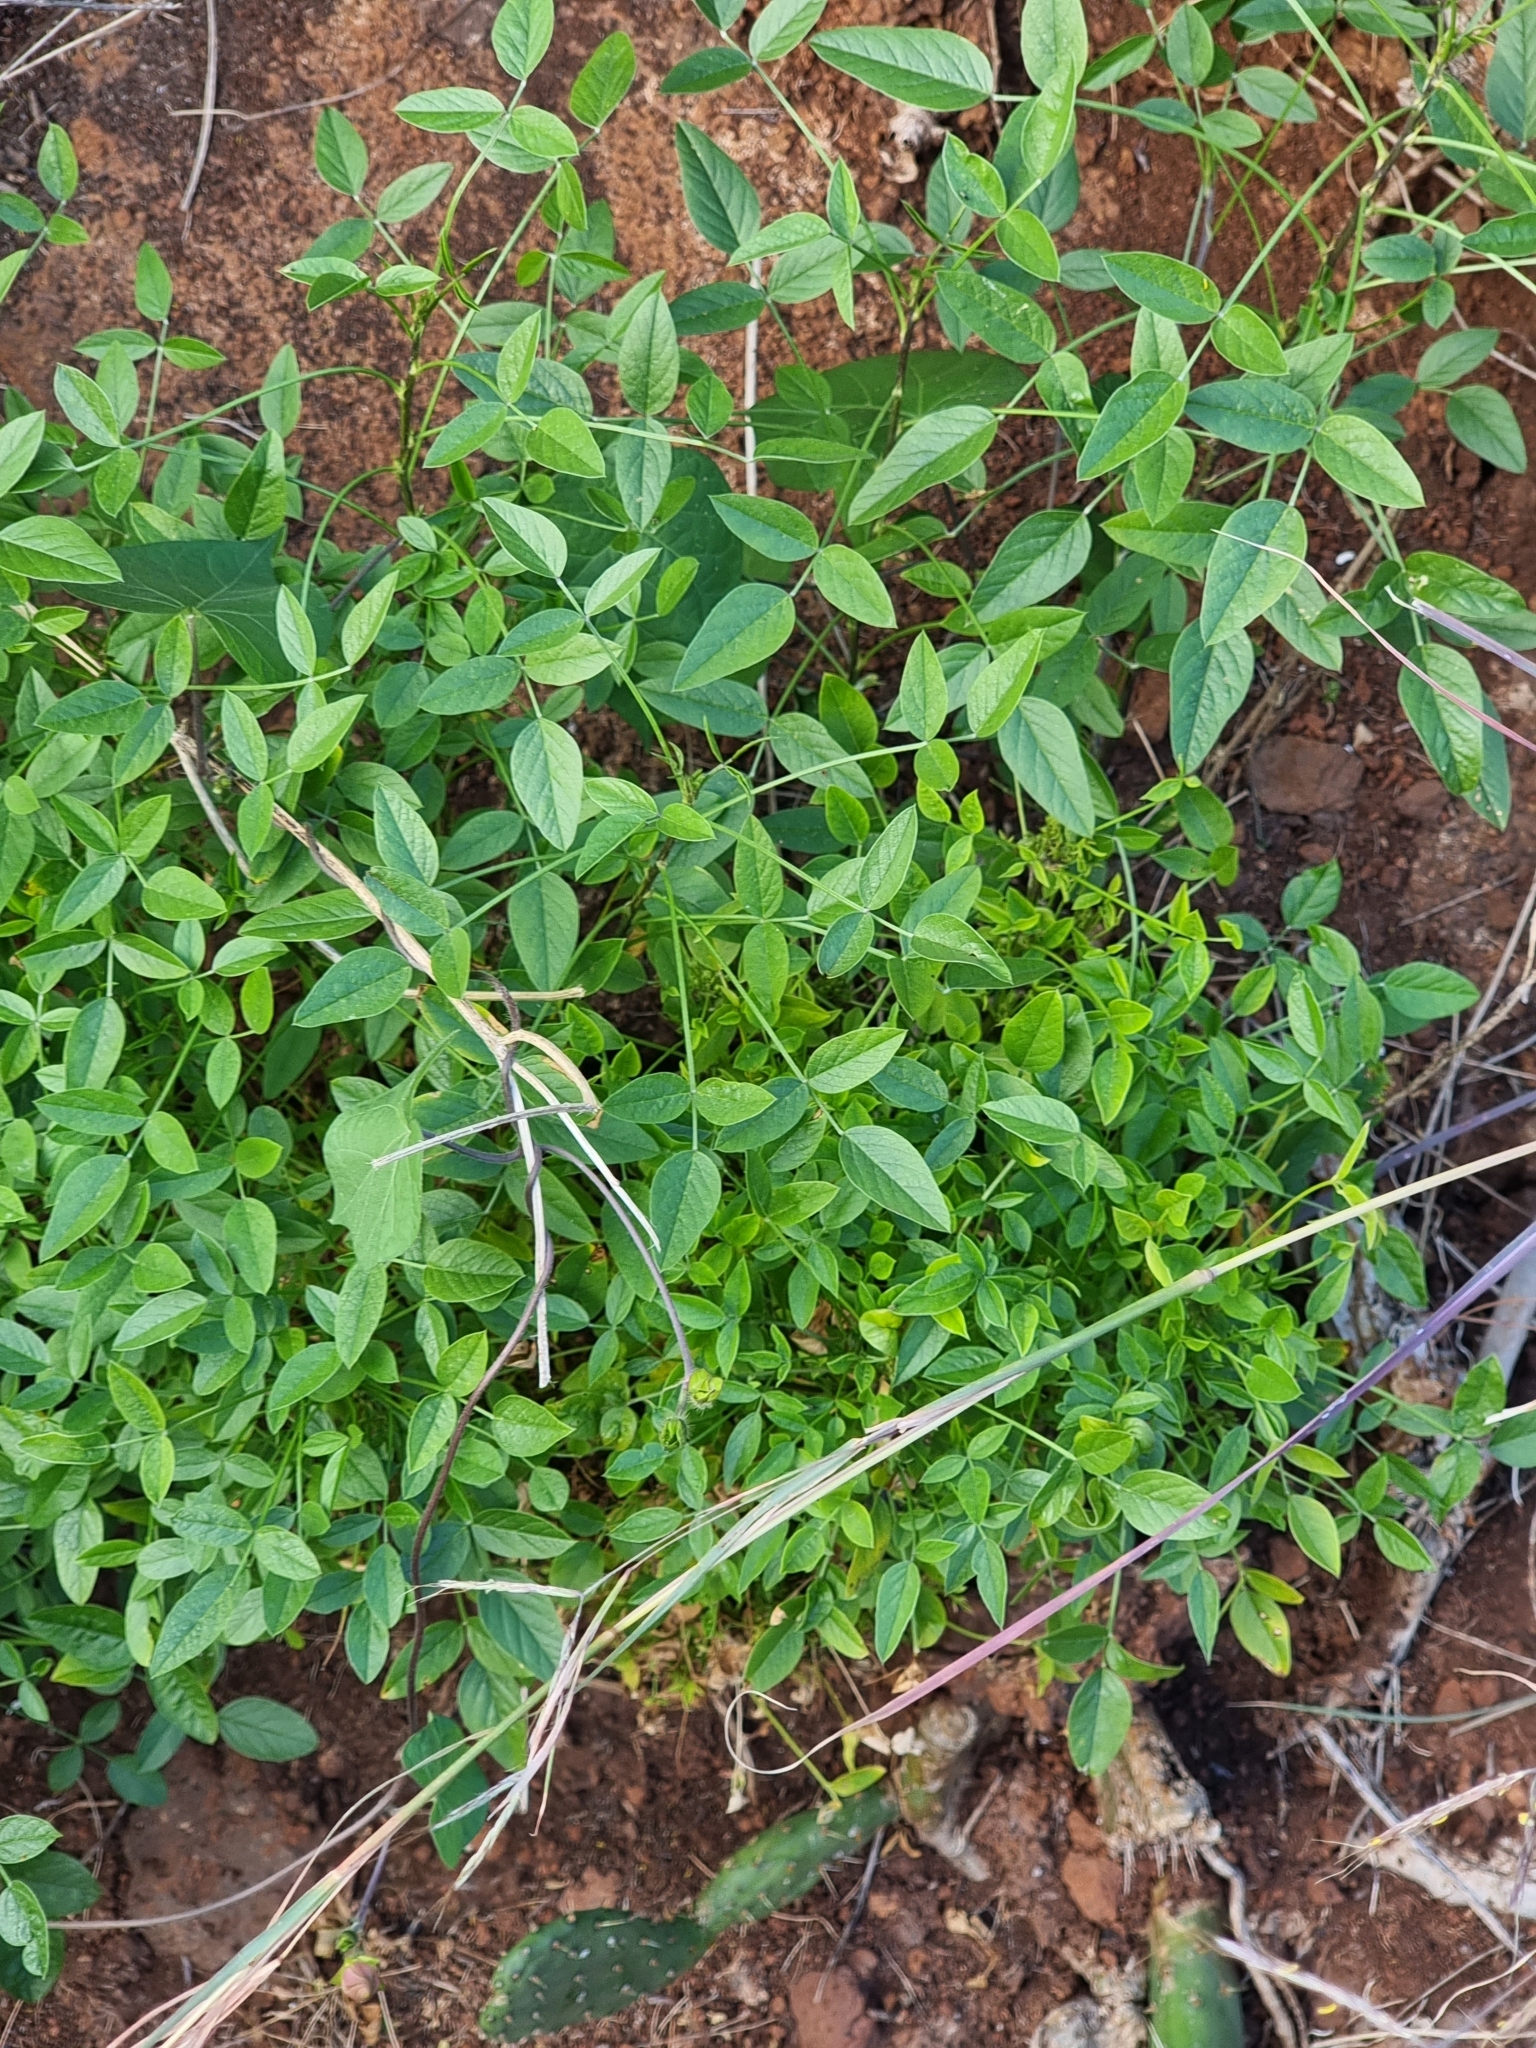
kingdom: Plantae
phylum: Tracheophyta
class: Magnoliopsida
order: Fabales
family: Fabaceae
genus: Bituminaria
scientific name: Bituminaria bituminosa
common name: Arabian pea
